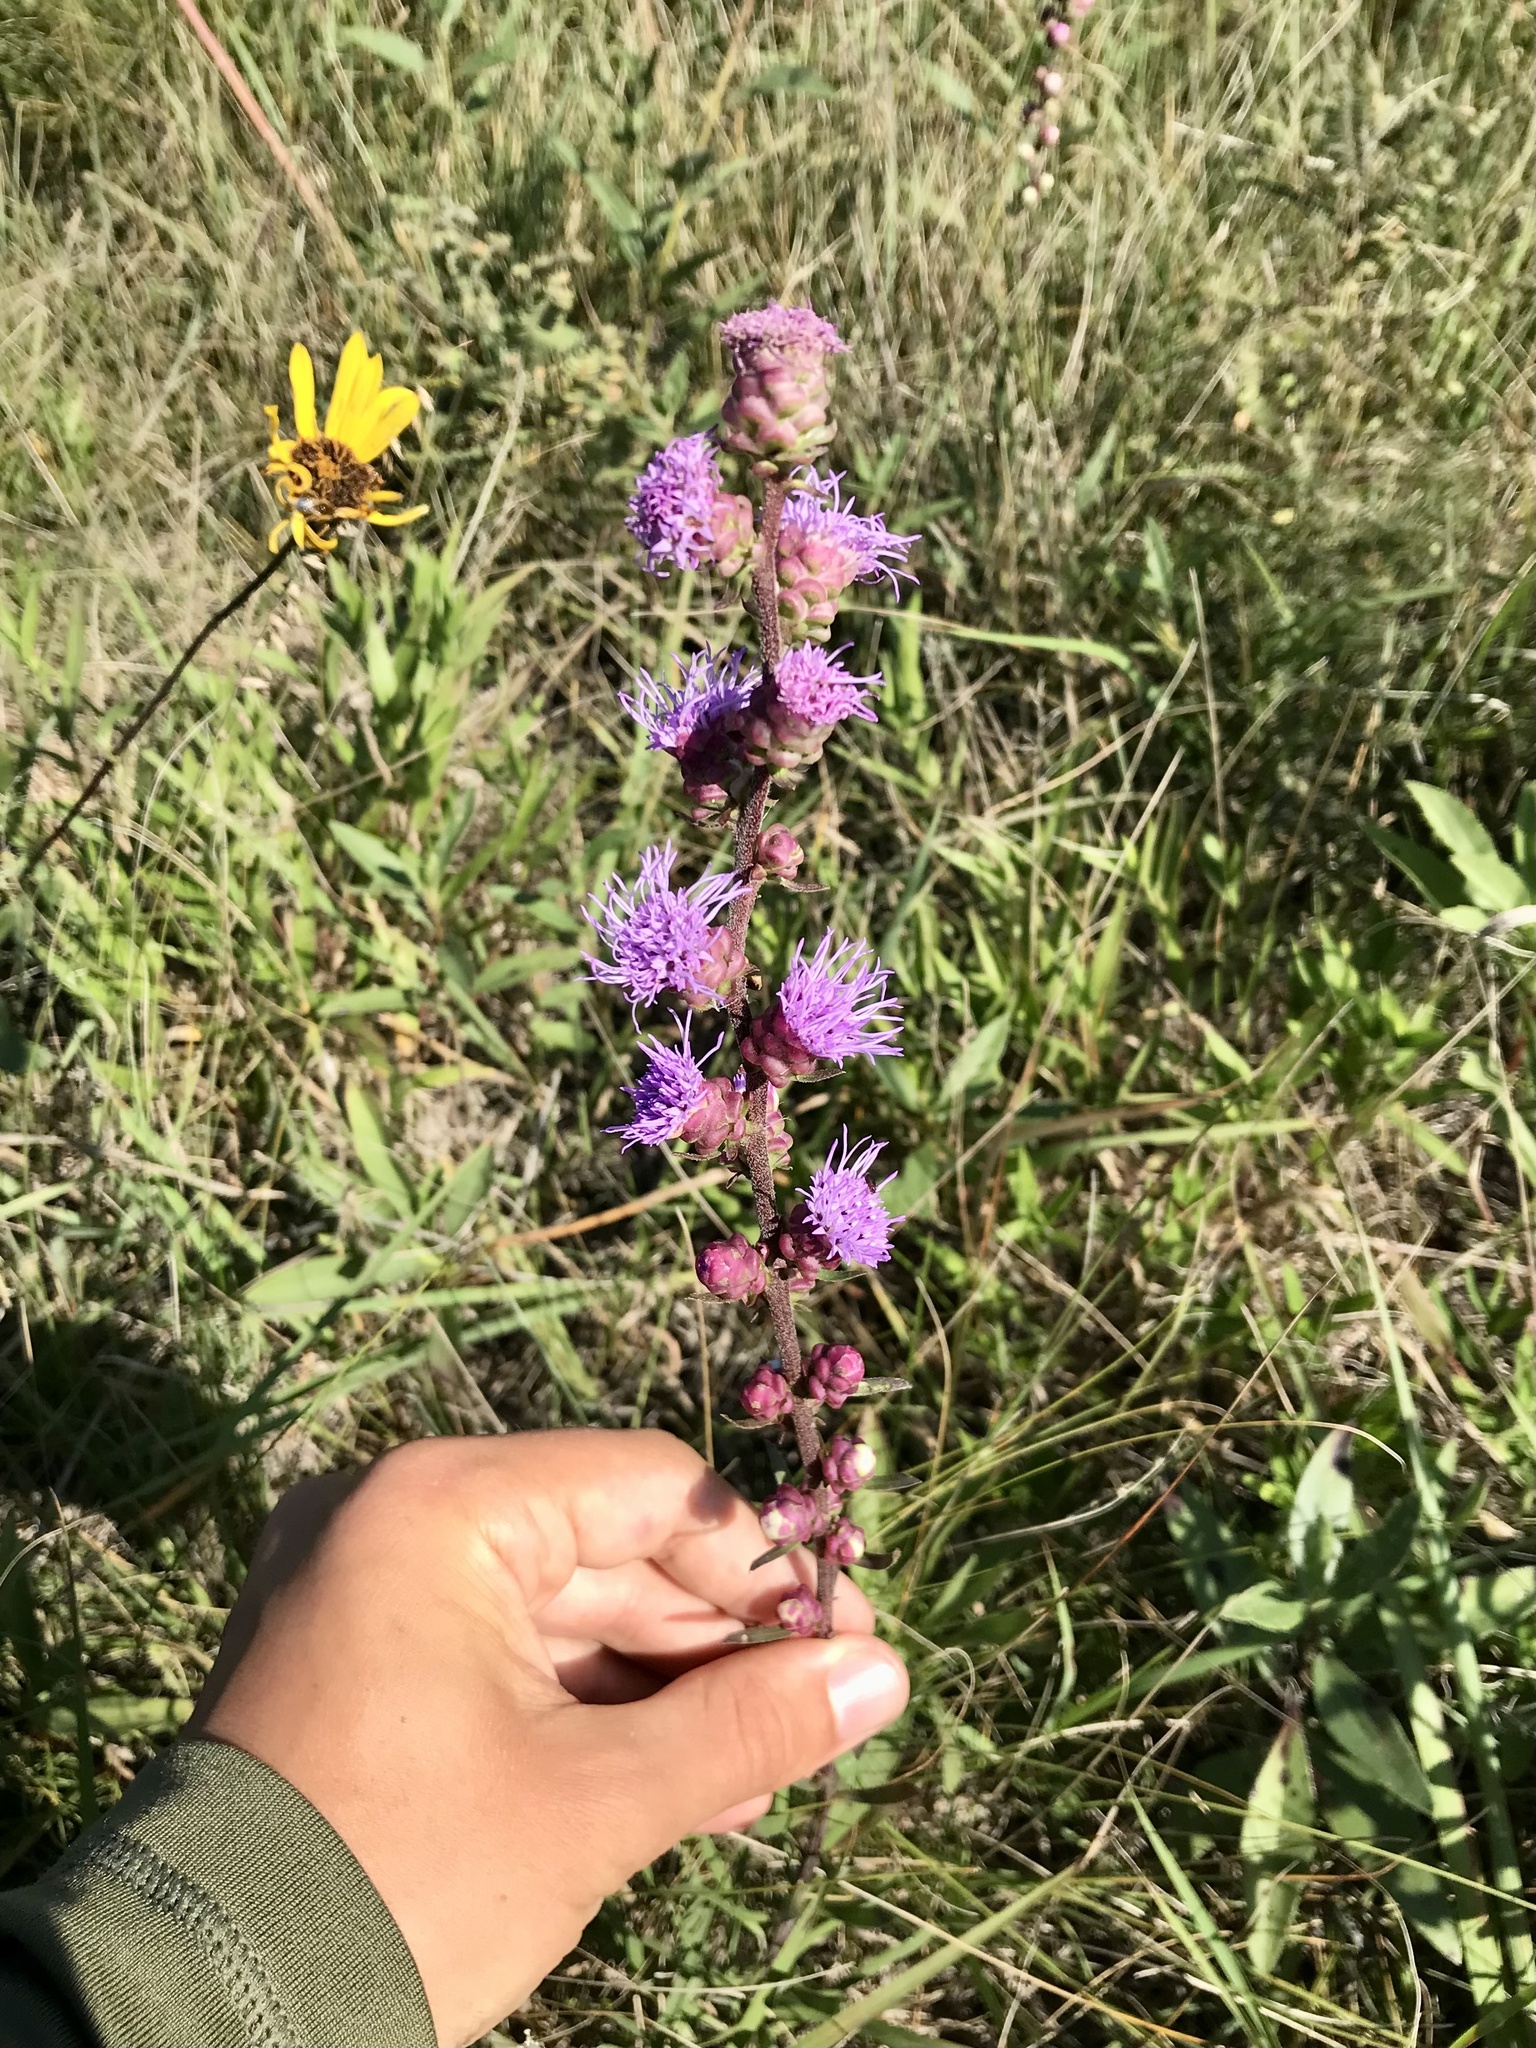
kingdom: Plantae
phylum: Tracheophyta
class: Magnoliopsida
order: Asterales
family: Asteraceae
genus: Liatris
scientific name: Liatris aspera
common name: Lacerate blazing-star
